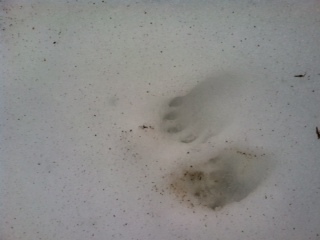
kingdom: Animalia
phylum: Chordata
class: Mammalia
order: Carnivora
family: Procyonidae
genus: Procyon
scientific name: Procyon lotor
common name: Raccoon
